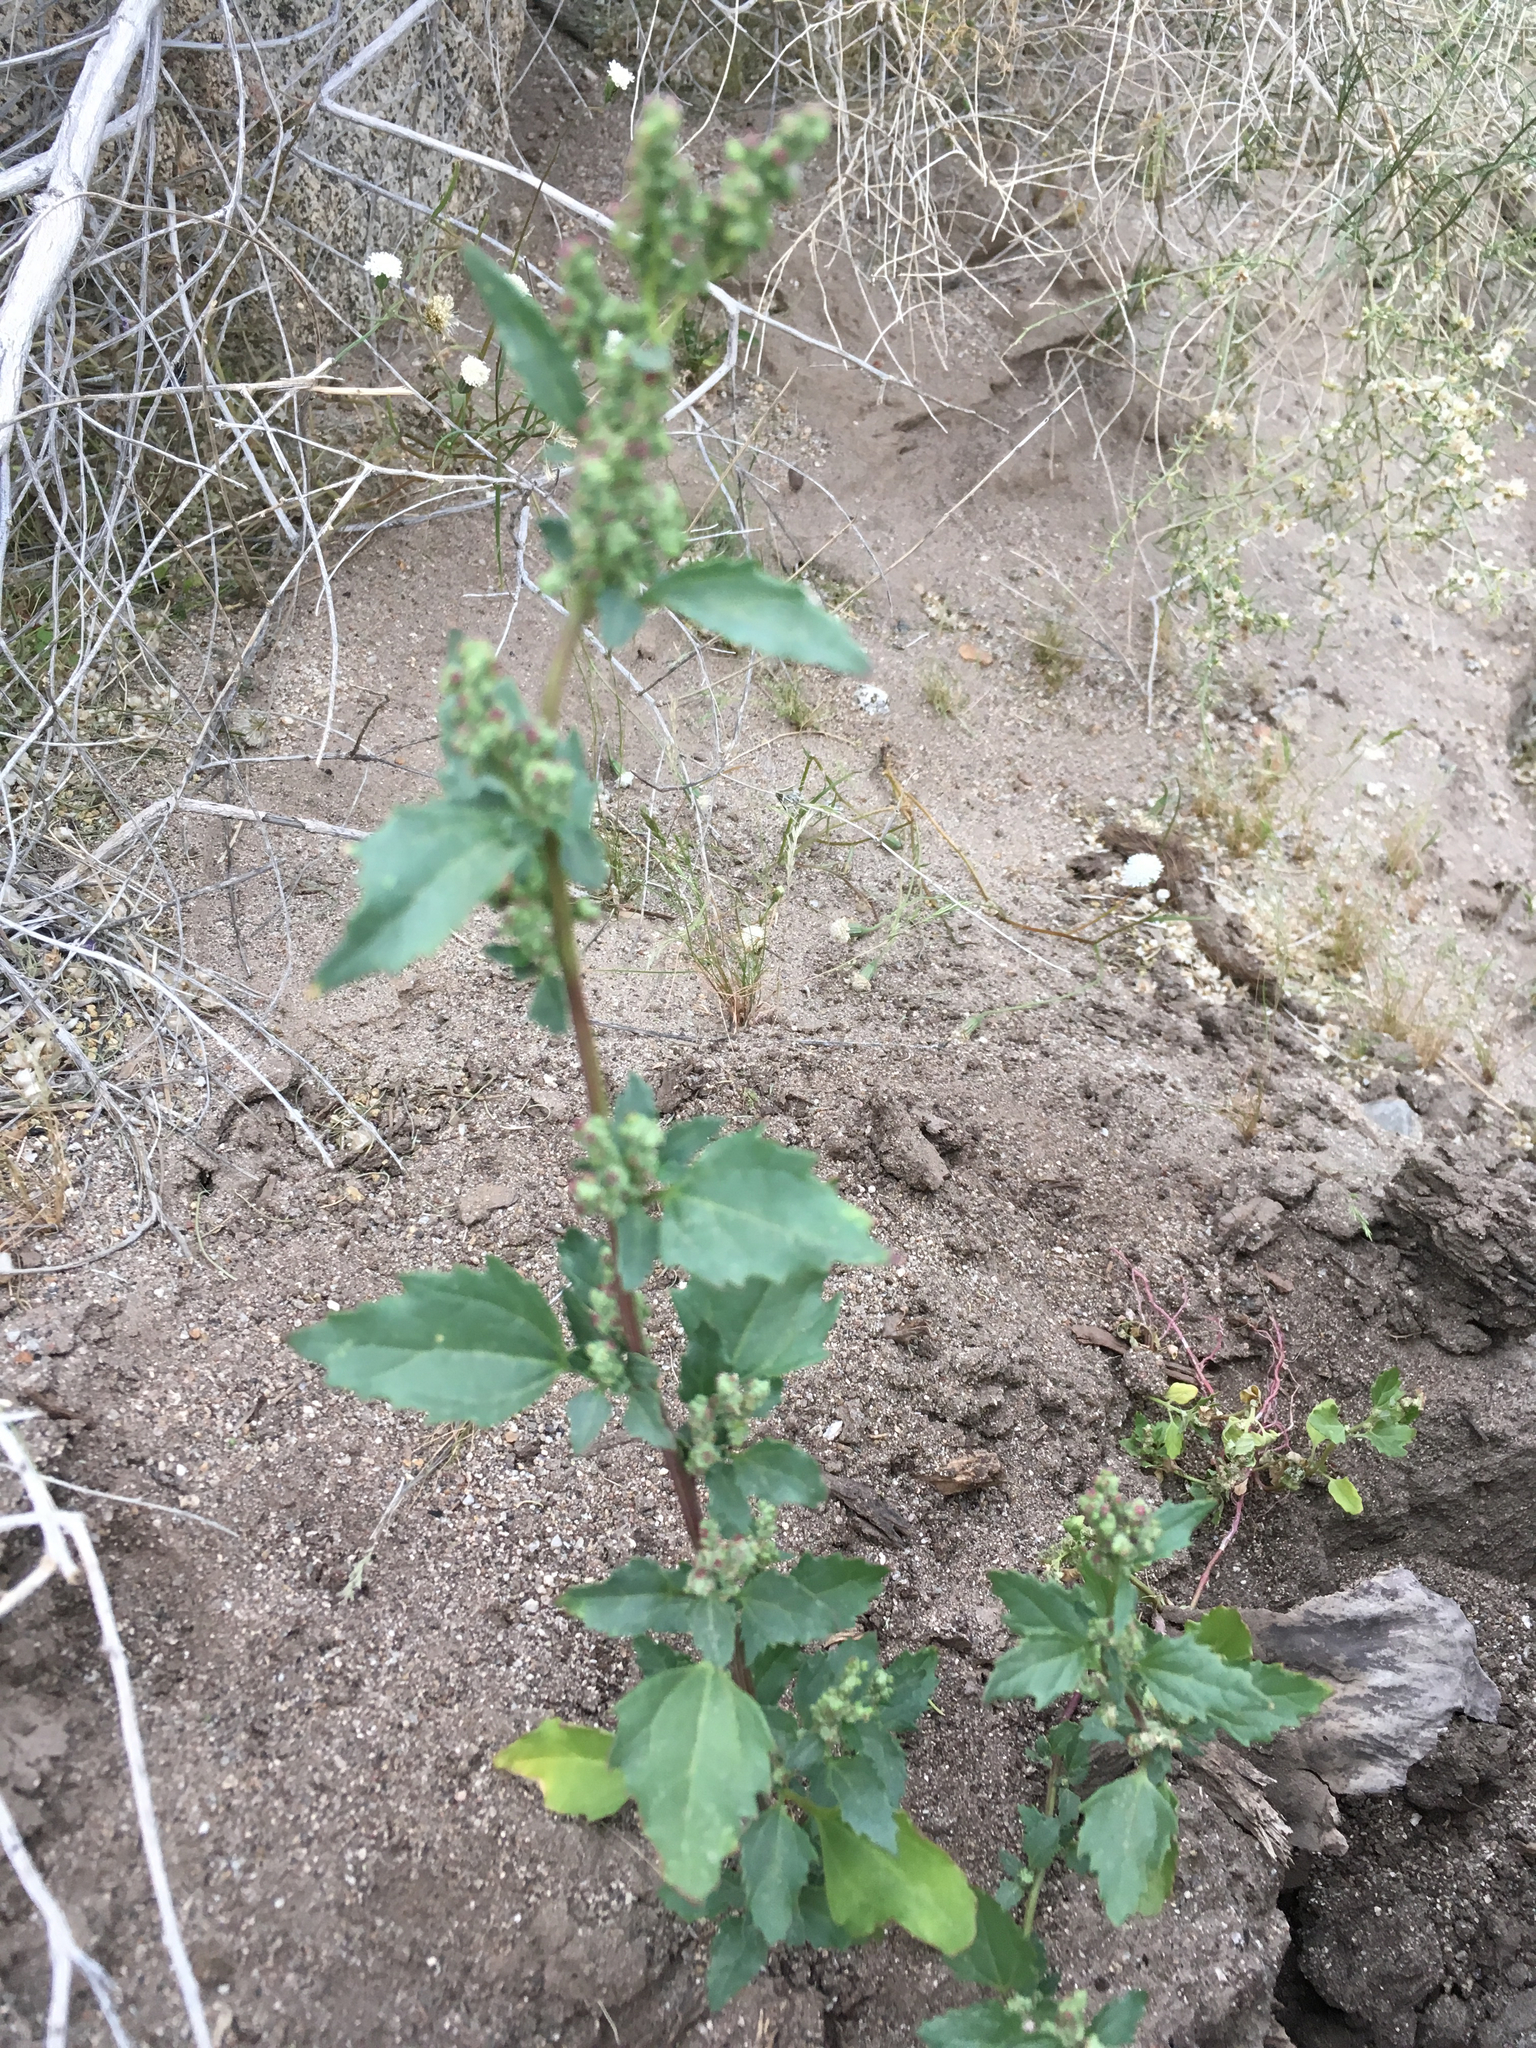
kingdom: Plantae
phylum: Tracheophyta
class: Magnoliopsida
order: Caryophyllales
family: Amaranthaceae
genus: Chenopodiastrum
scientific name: Chenopodiastrum murale
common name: Sowbane
